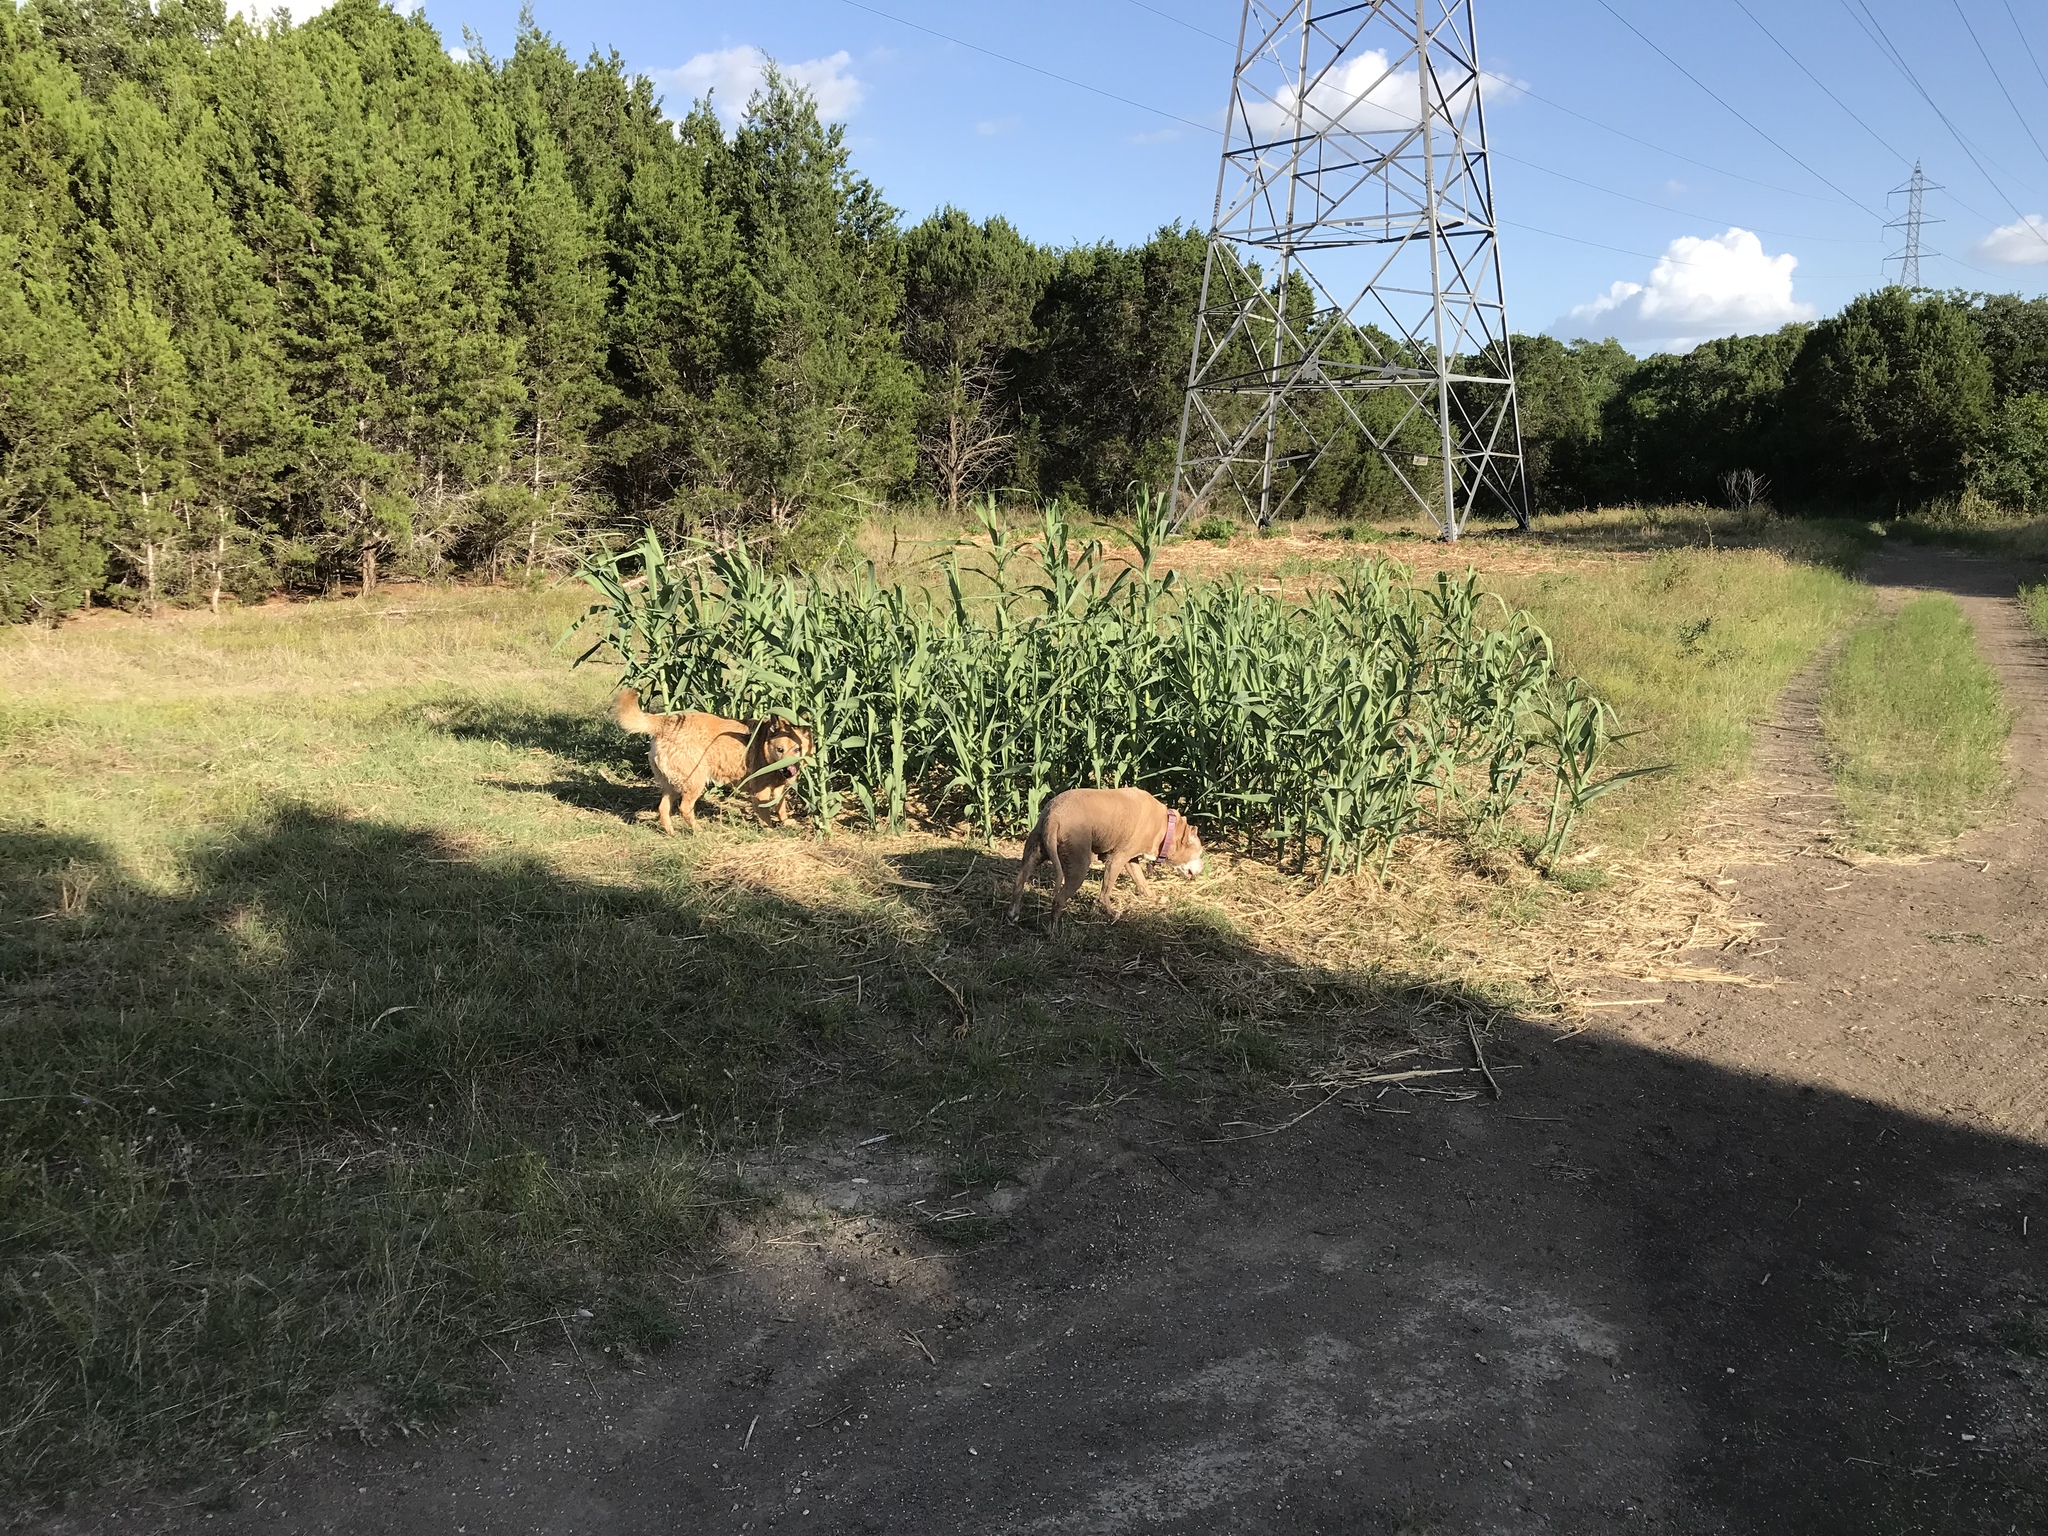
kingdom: Plantae
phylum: Tracheophyta
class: Liliopsida
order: Poales
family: Poaceae
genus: Arundo
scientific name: Arundo donax
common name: Giant reed
